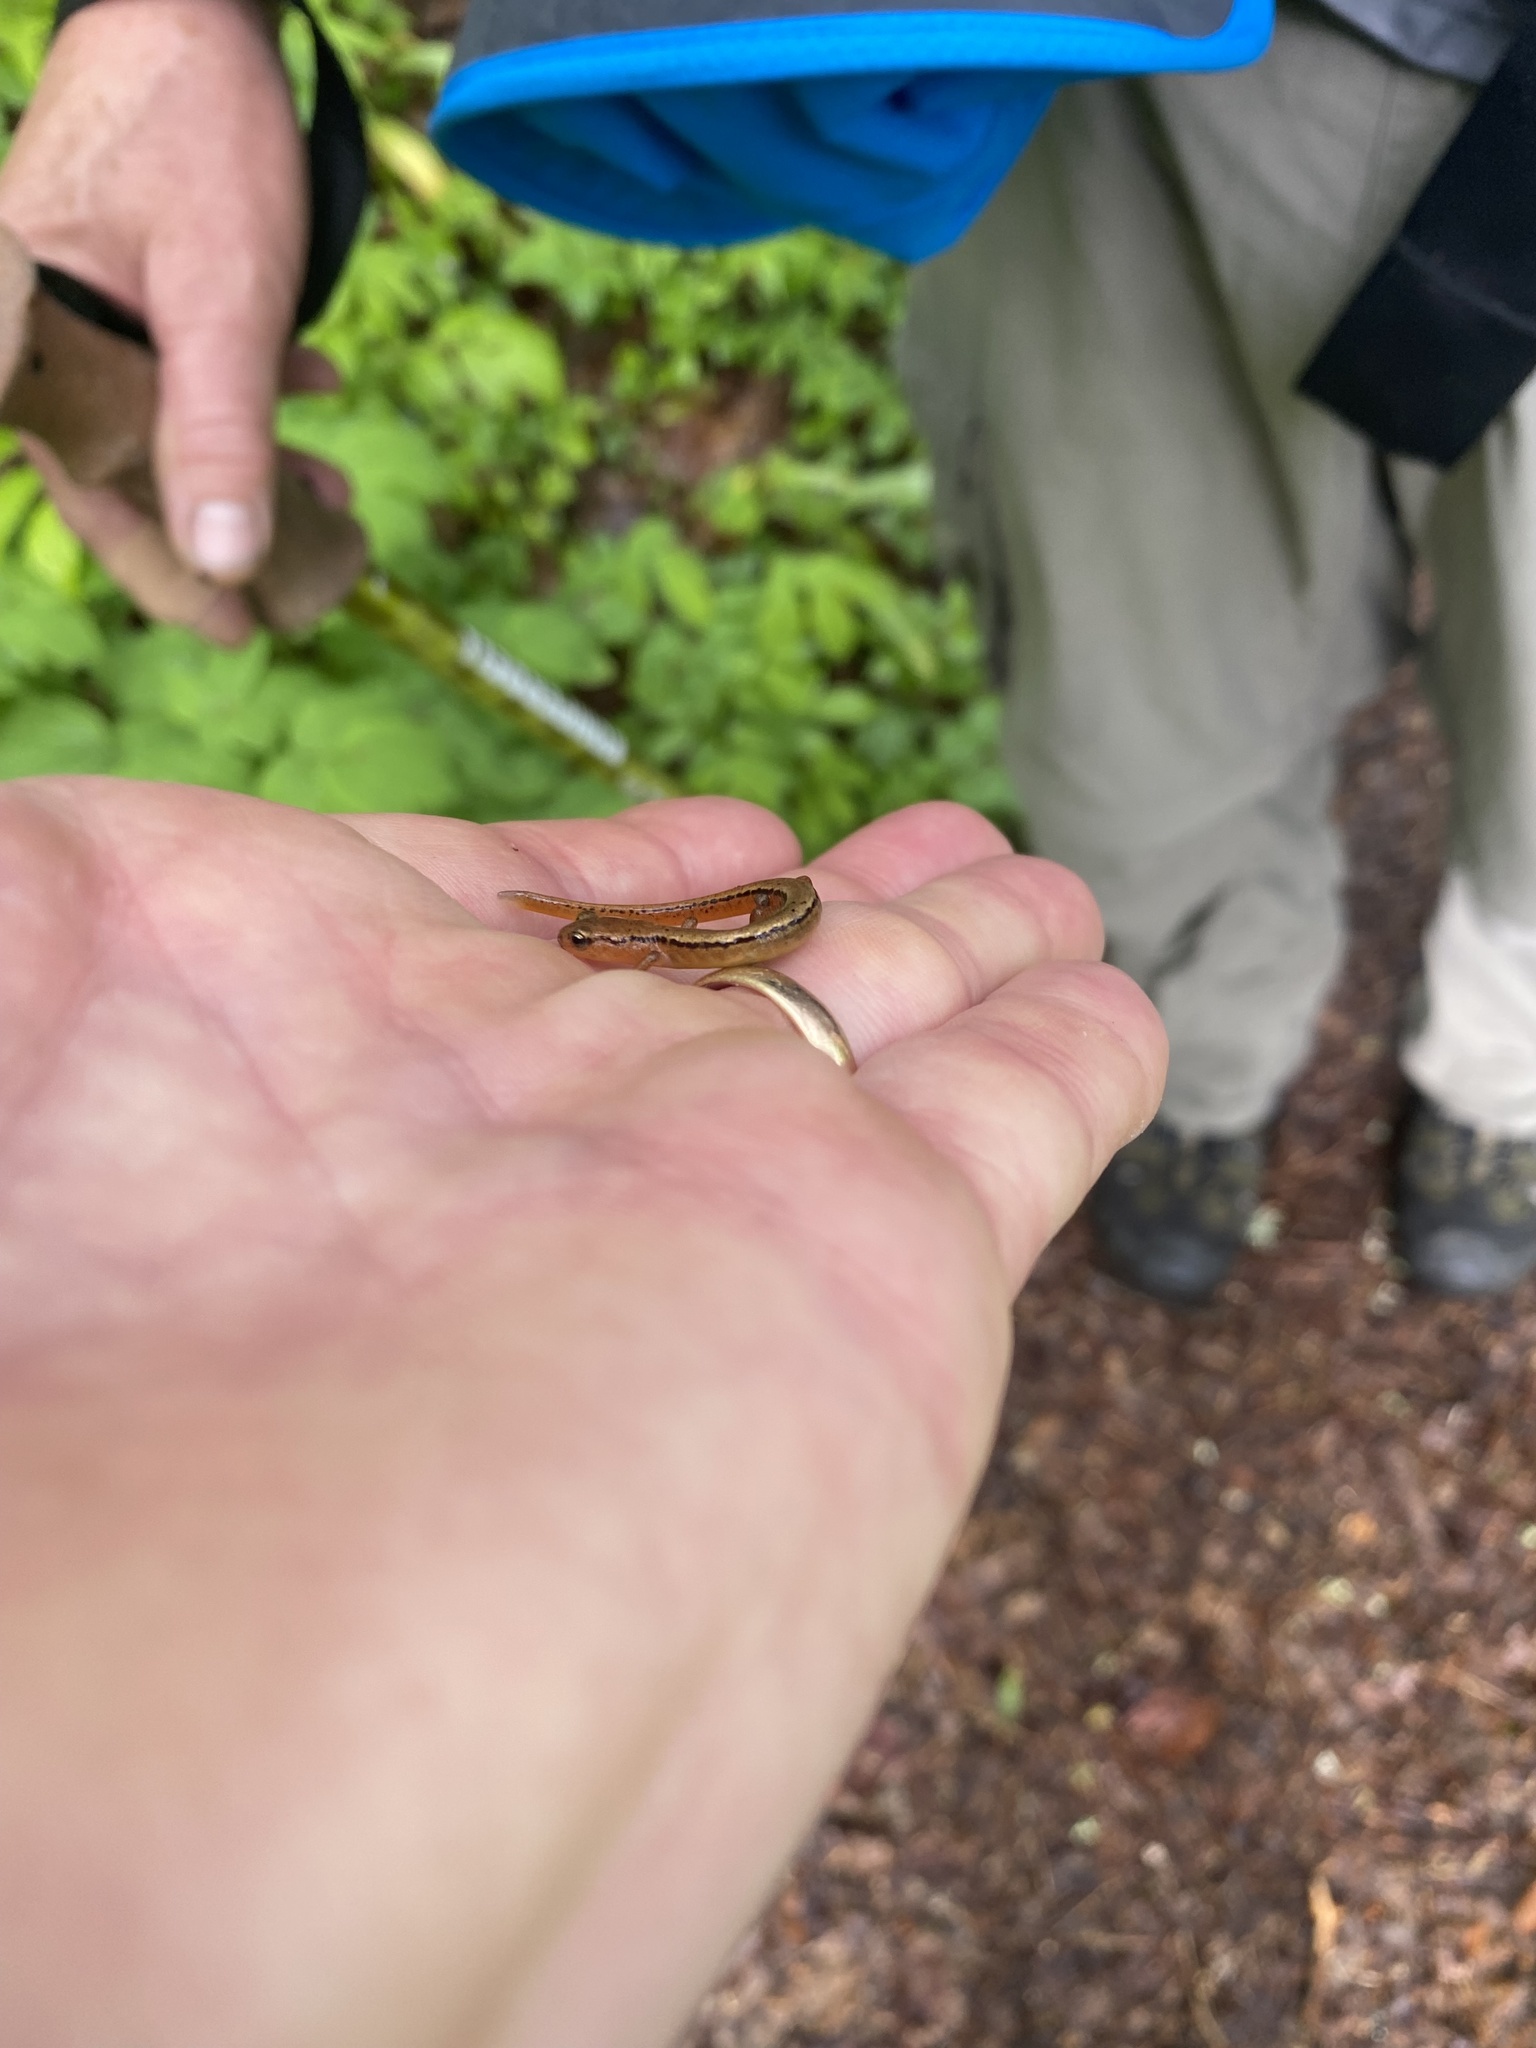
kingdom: Animalia
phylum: Chordata
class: Amphibia
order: Caudata
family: Plethodontidae
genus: Eurycea
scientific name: Eurycea wilderae
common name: Blue ridge two-lined salamander
